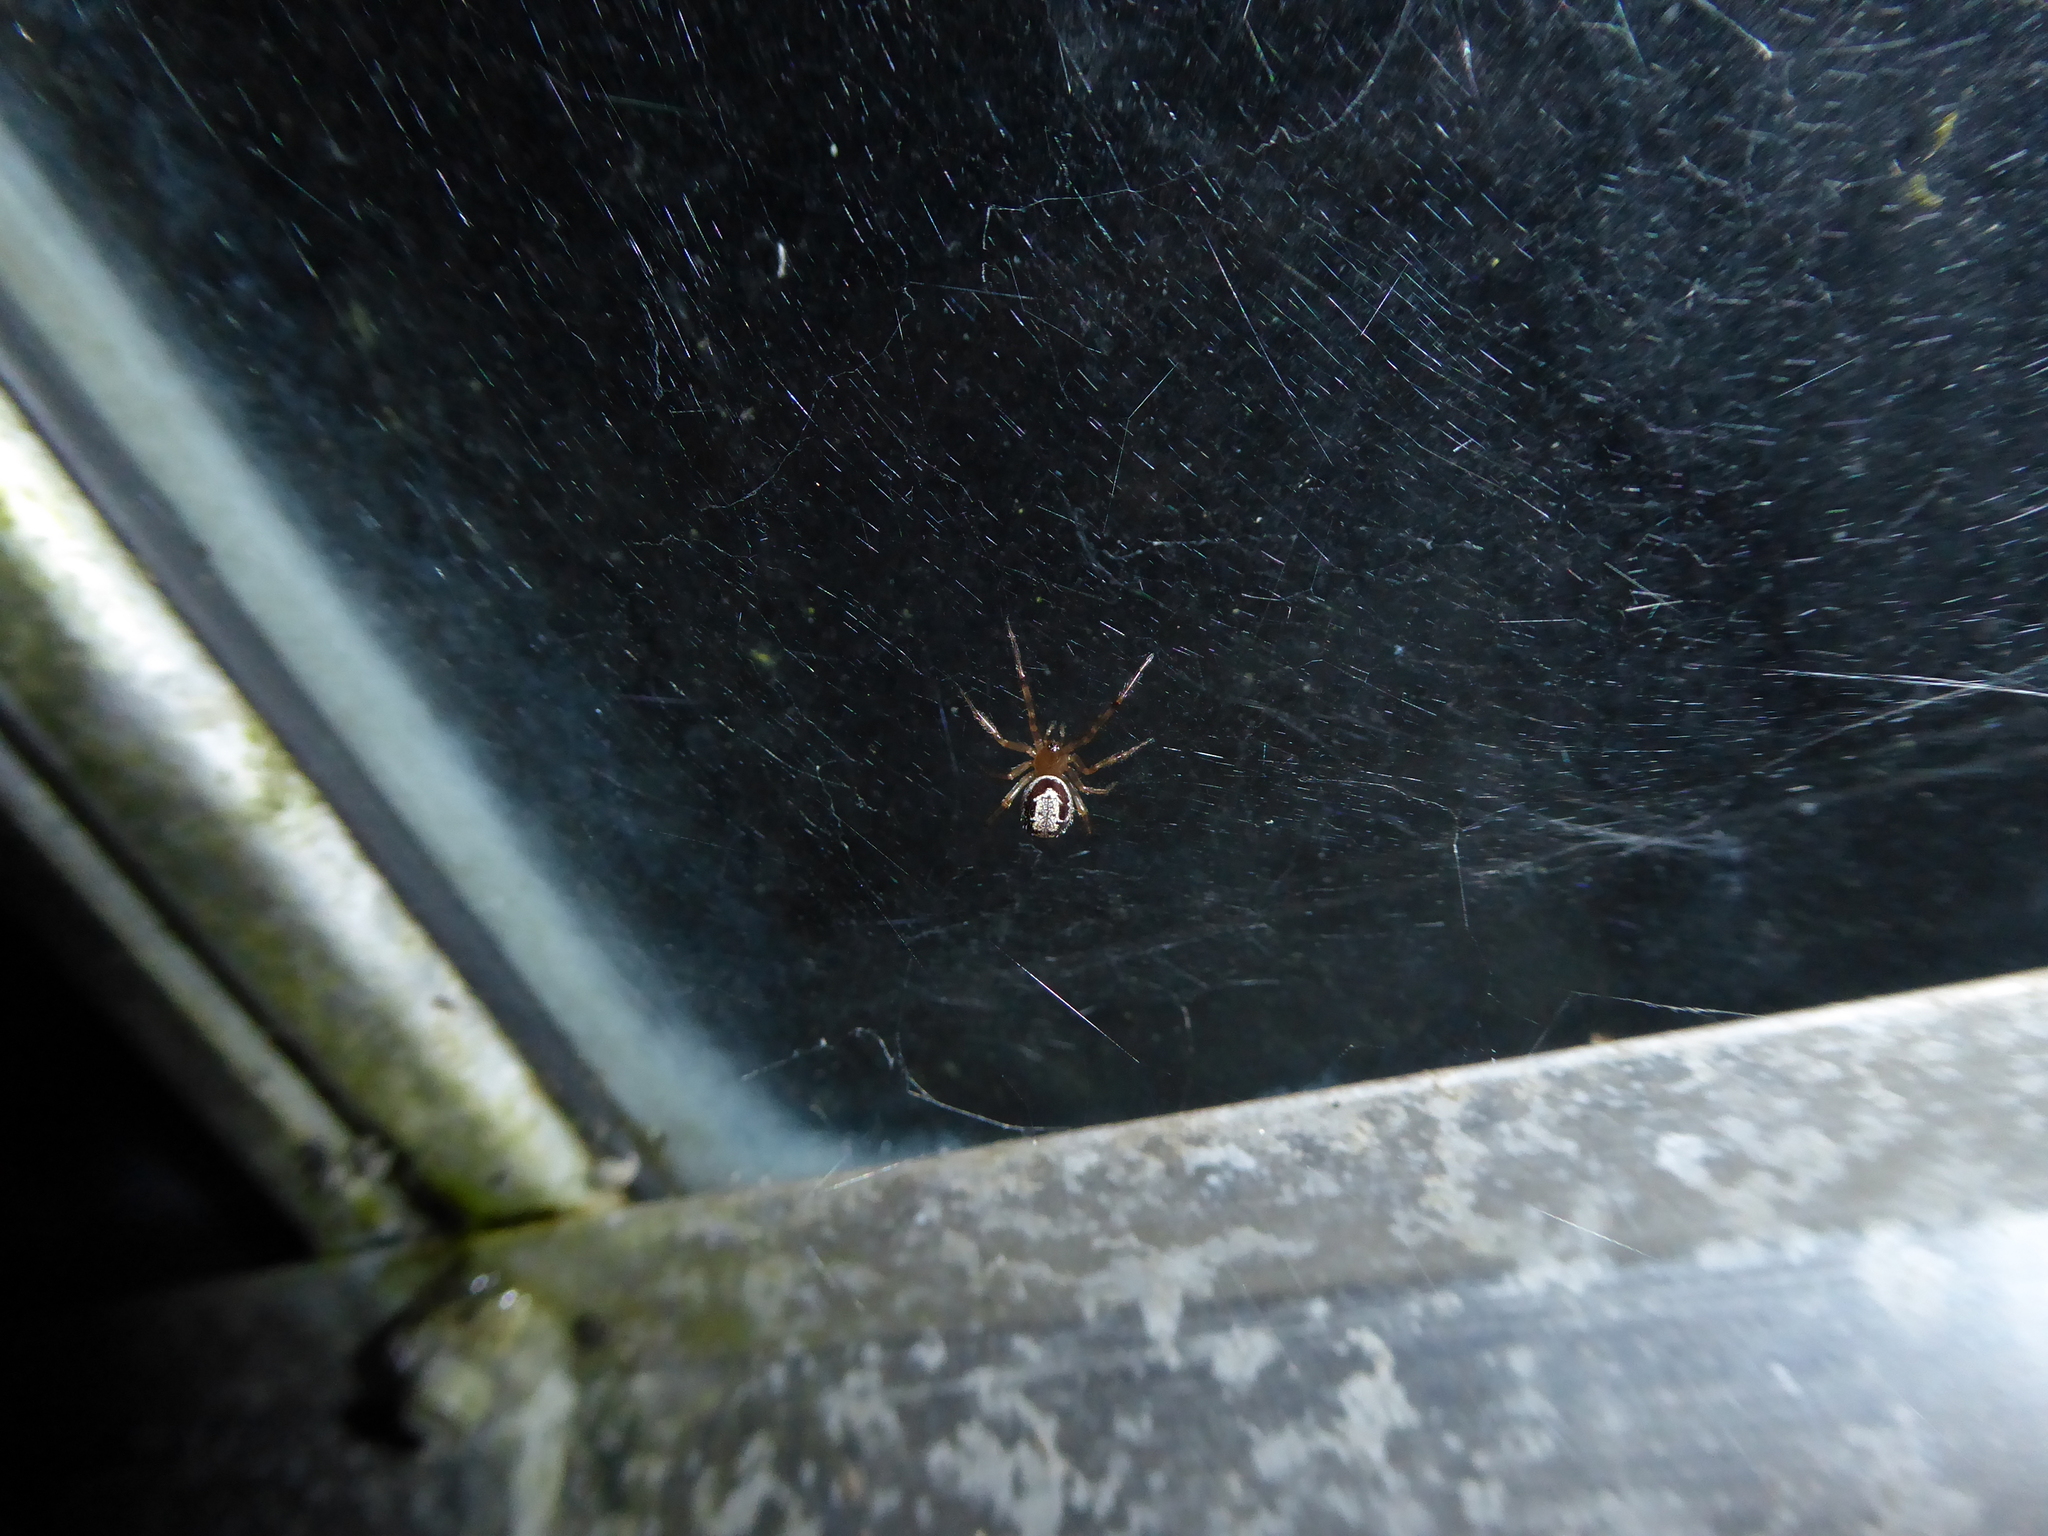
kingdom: Animalia
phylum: Arthropoda
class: Arachnida
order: Araneae
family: Theridiidae
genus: Steatoda
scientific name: Steatoda nobilis
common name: Cobweb weaver
